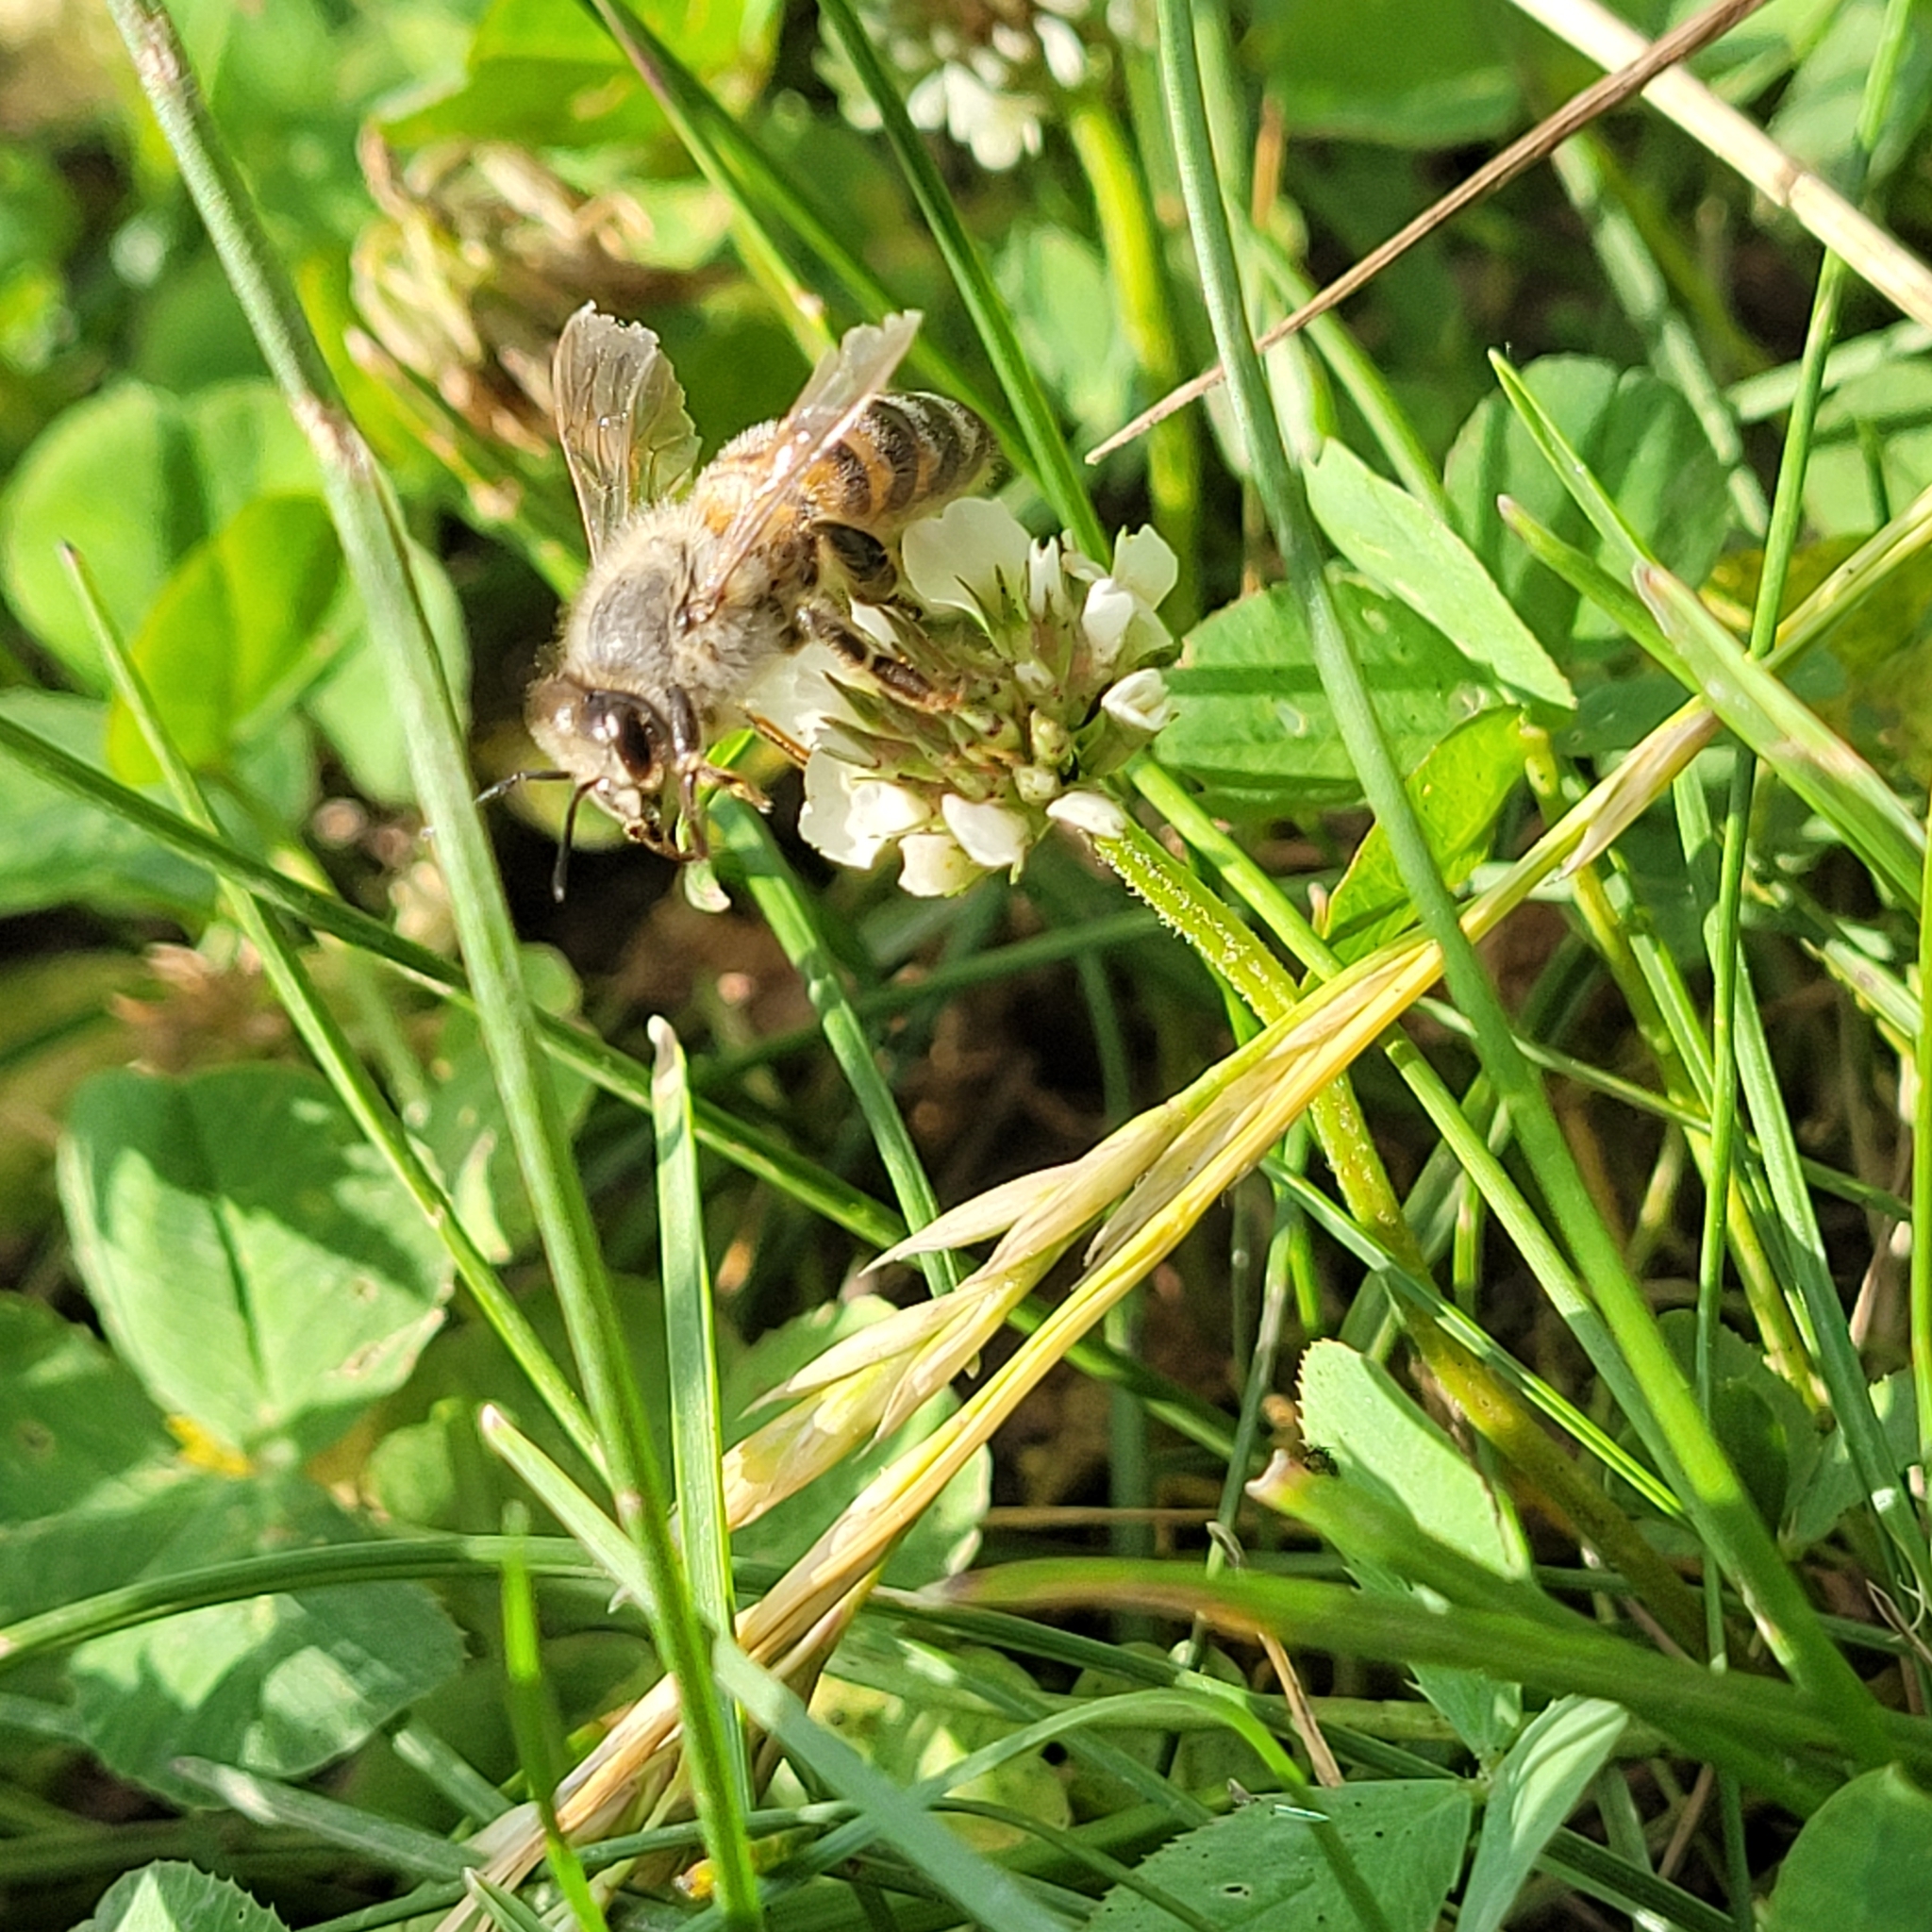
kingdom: Animalia
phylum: Arthropoda
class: Insecta
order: Hymenoptera
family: Apidae
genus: Apis
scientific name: Apis mellifera
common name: Honey bee
